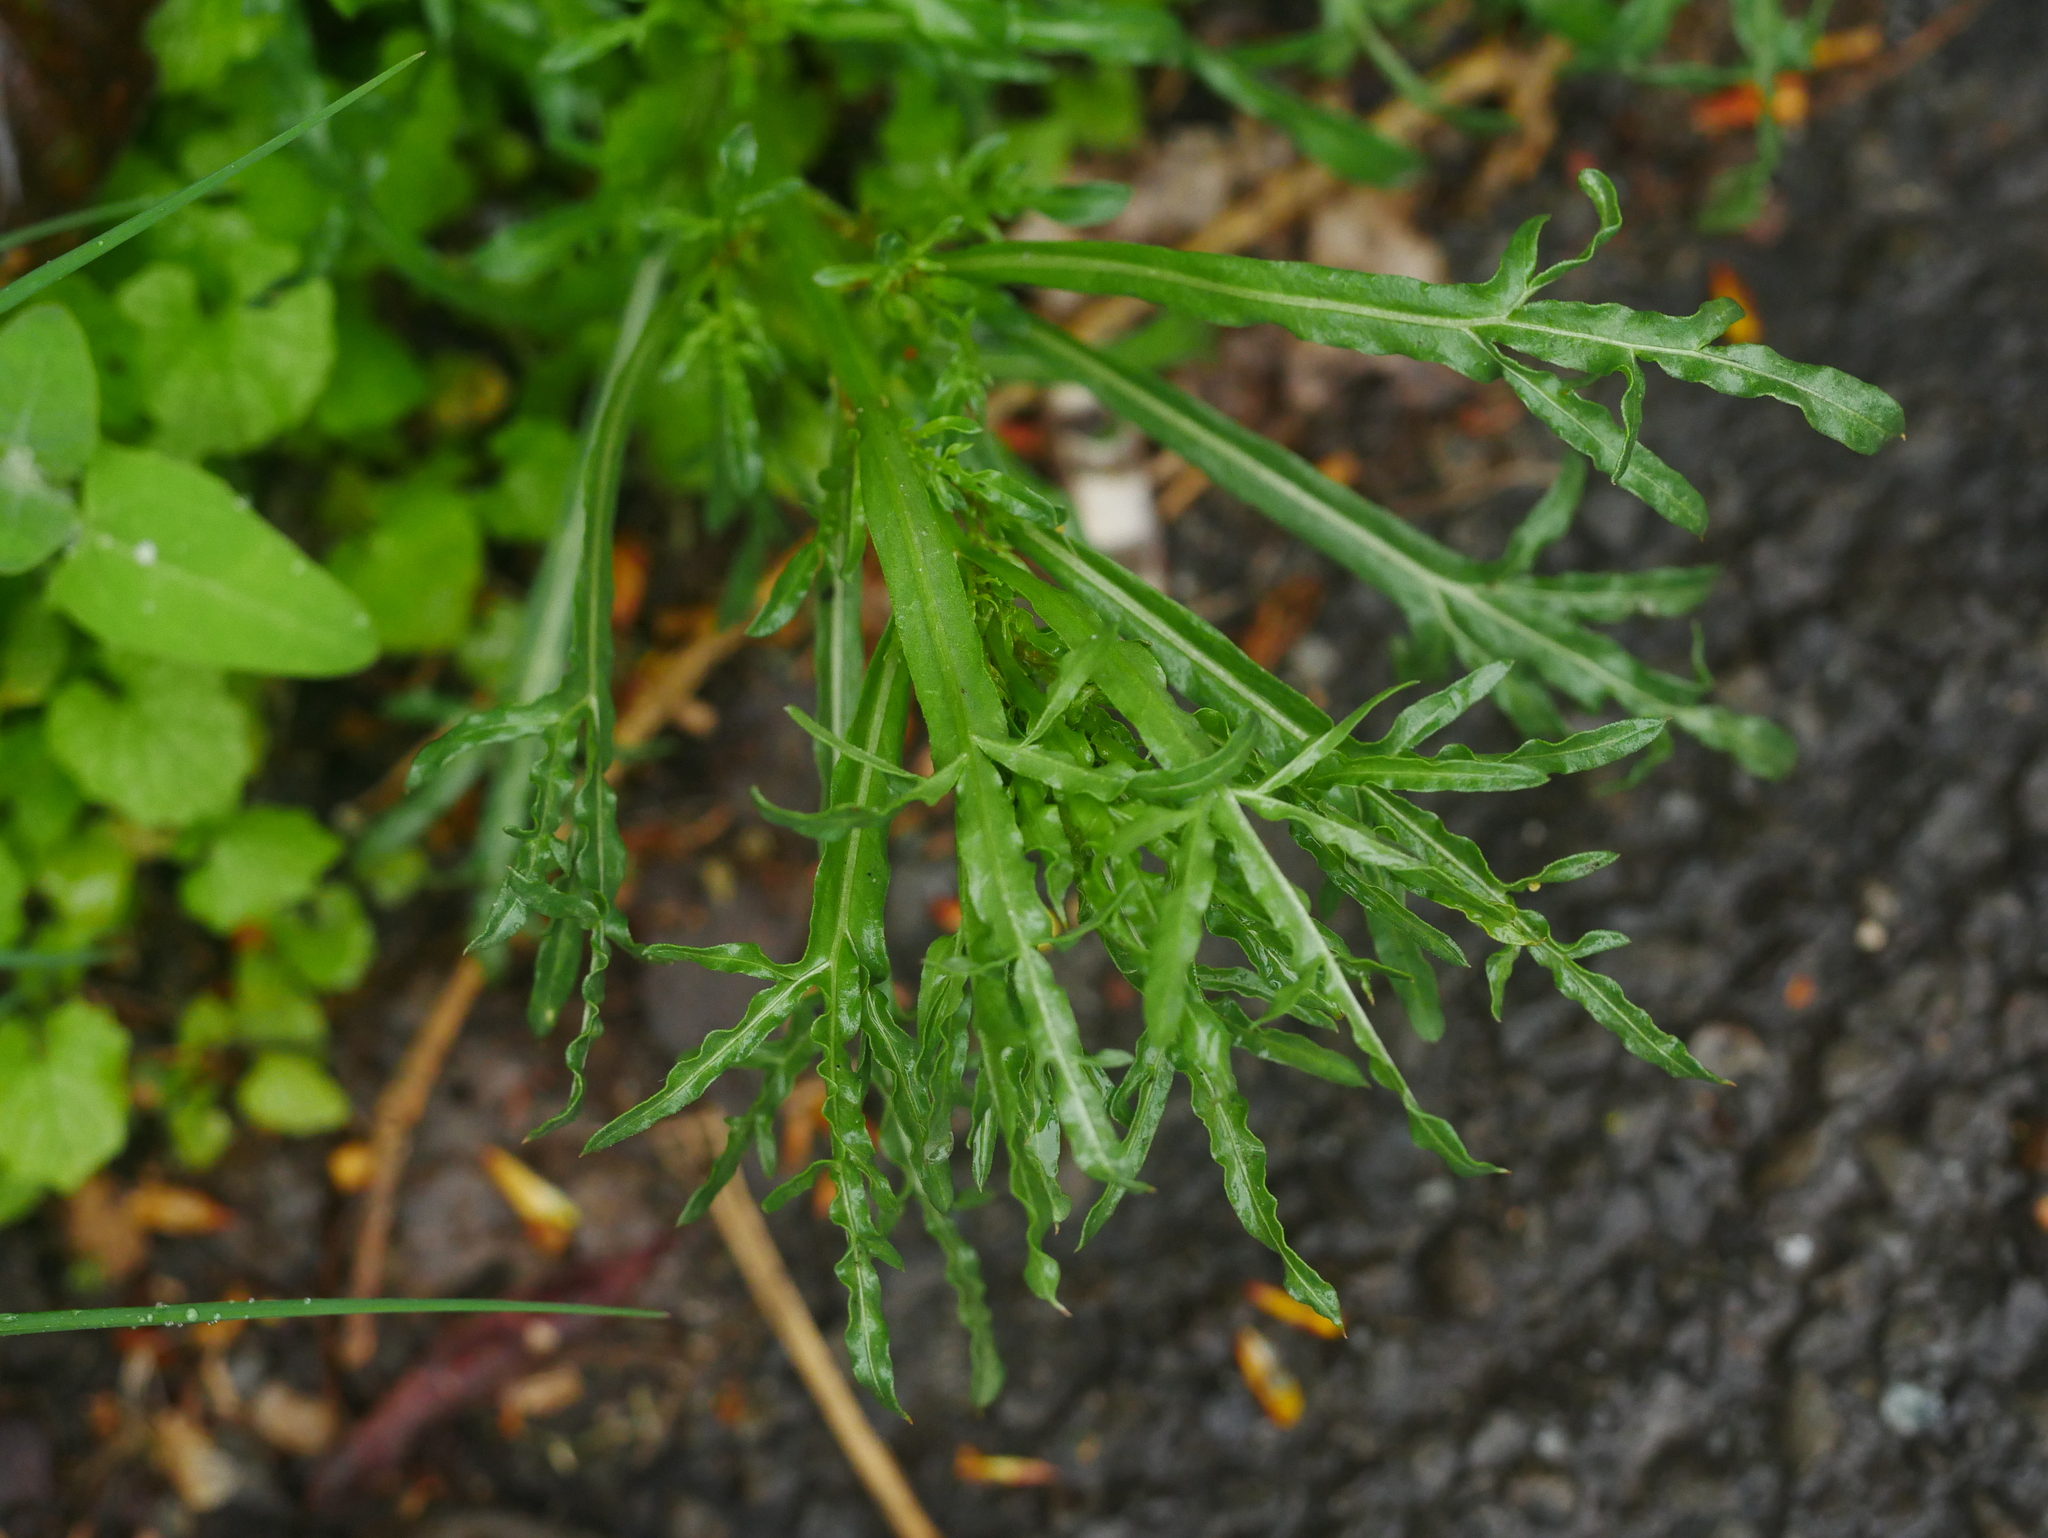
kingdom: Plantae
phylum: Tracheophyta
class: Magnoliopsida
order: Brassicales
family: Resedaceae
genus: Reseda
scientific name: Reseda lutea
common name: Wild mignonette
